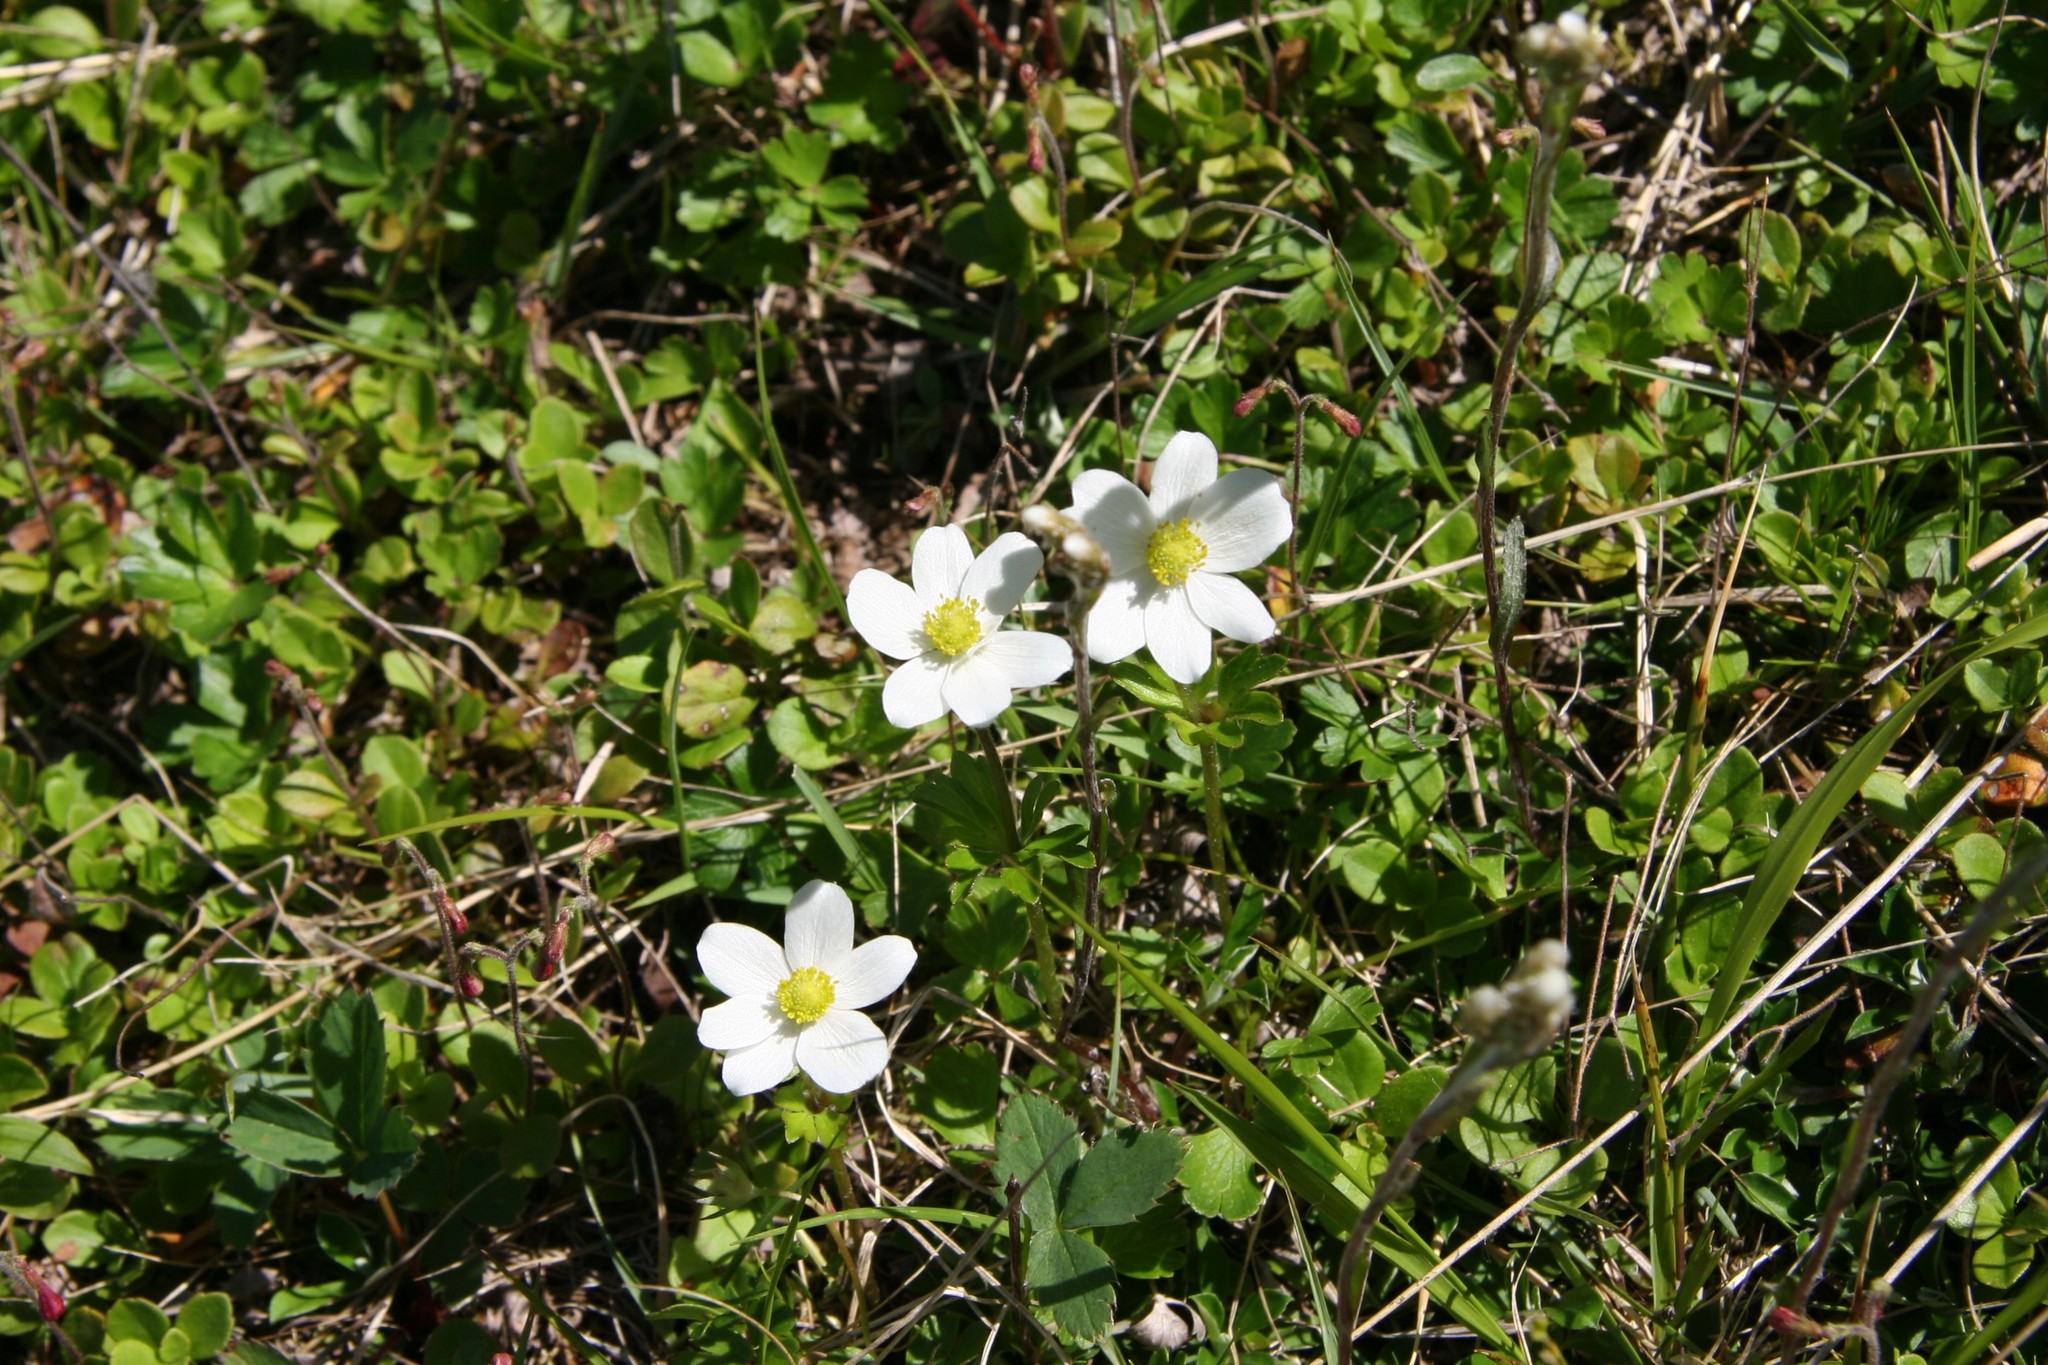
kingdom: Plantae
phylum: Tracheophyta
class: Magnoliopsida
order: Ranunculales
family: Ranunculaceae
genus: Anemone
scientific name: Anemone parviflora
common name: Northern anemone
